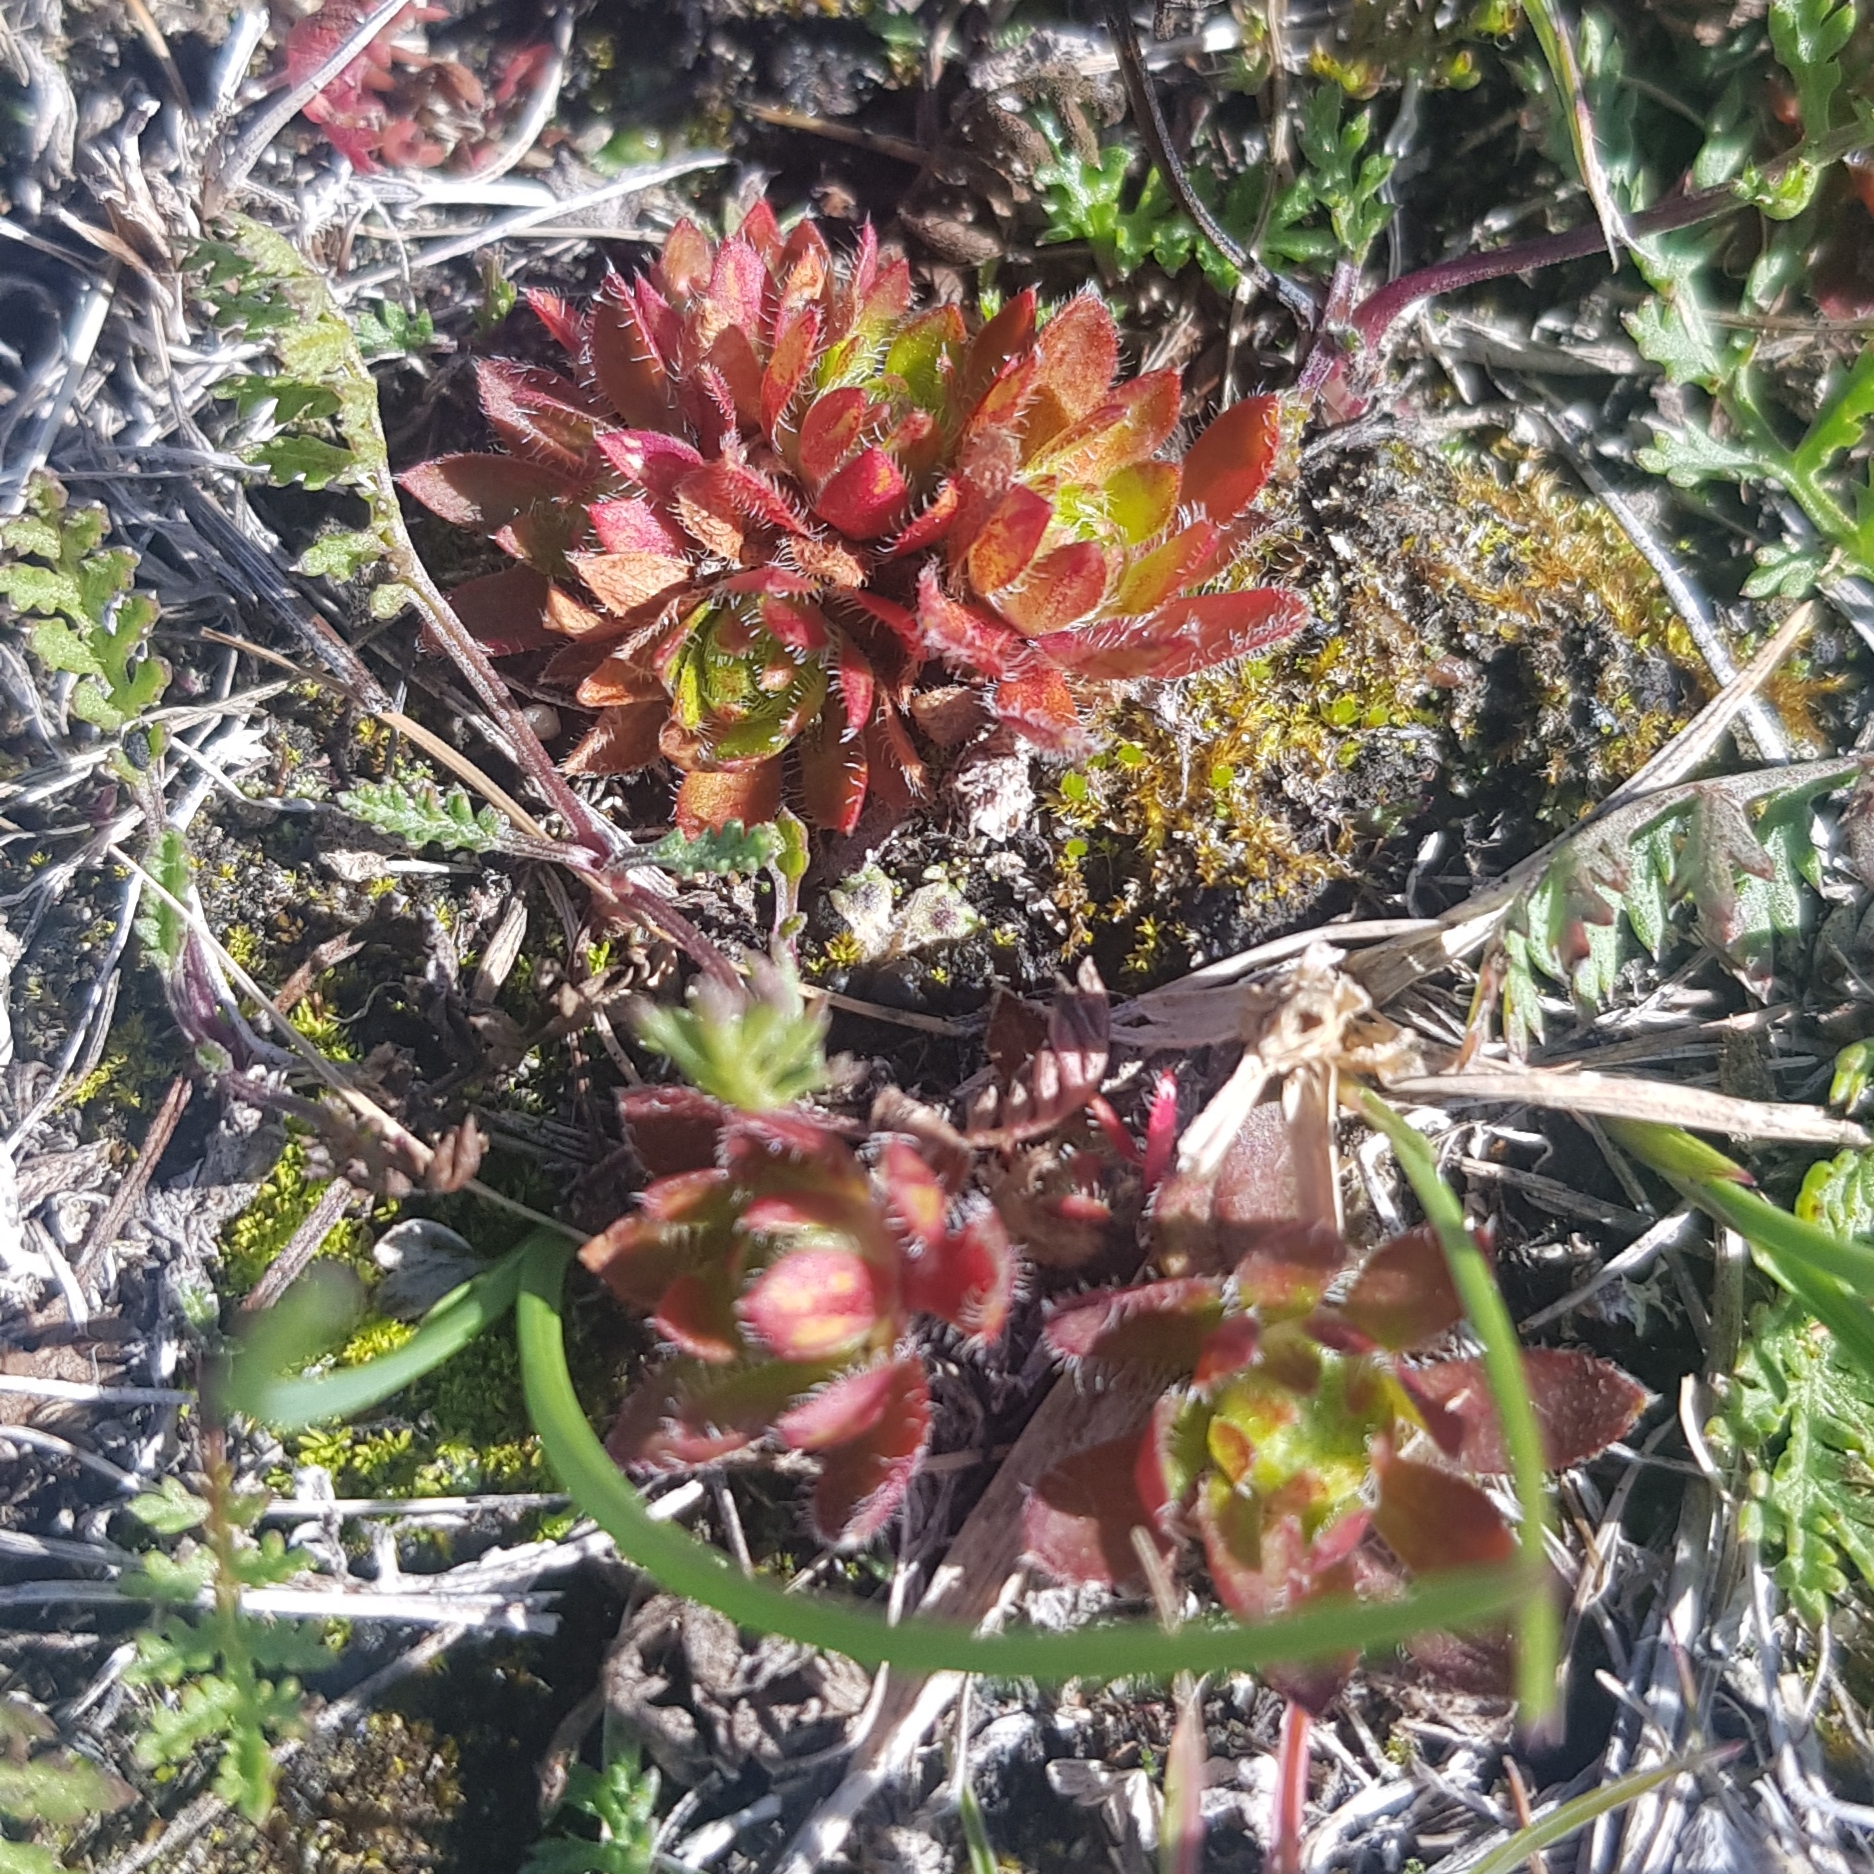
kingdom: Plantae
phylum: Tracheophyta
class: Magnoliopsida
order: Ericales
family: Primulaceae
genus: Androsace
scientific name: Androsace chamaejasme
